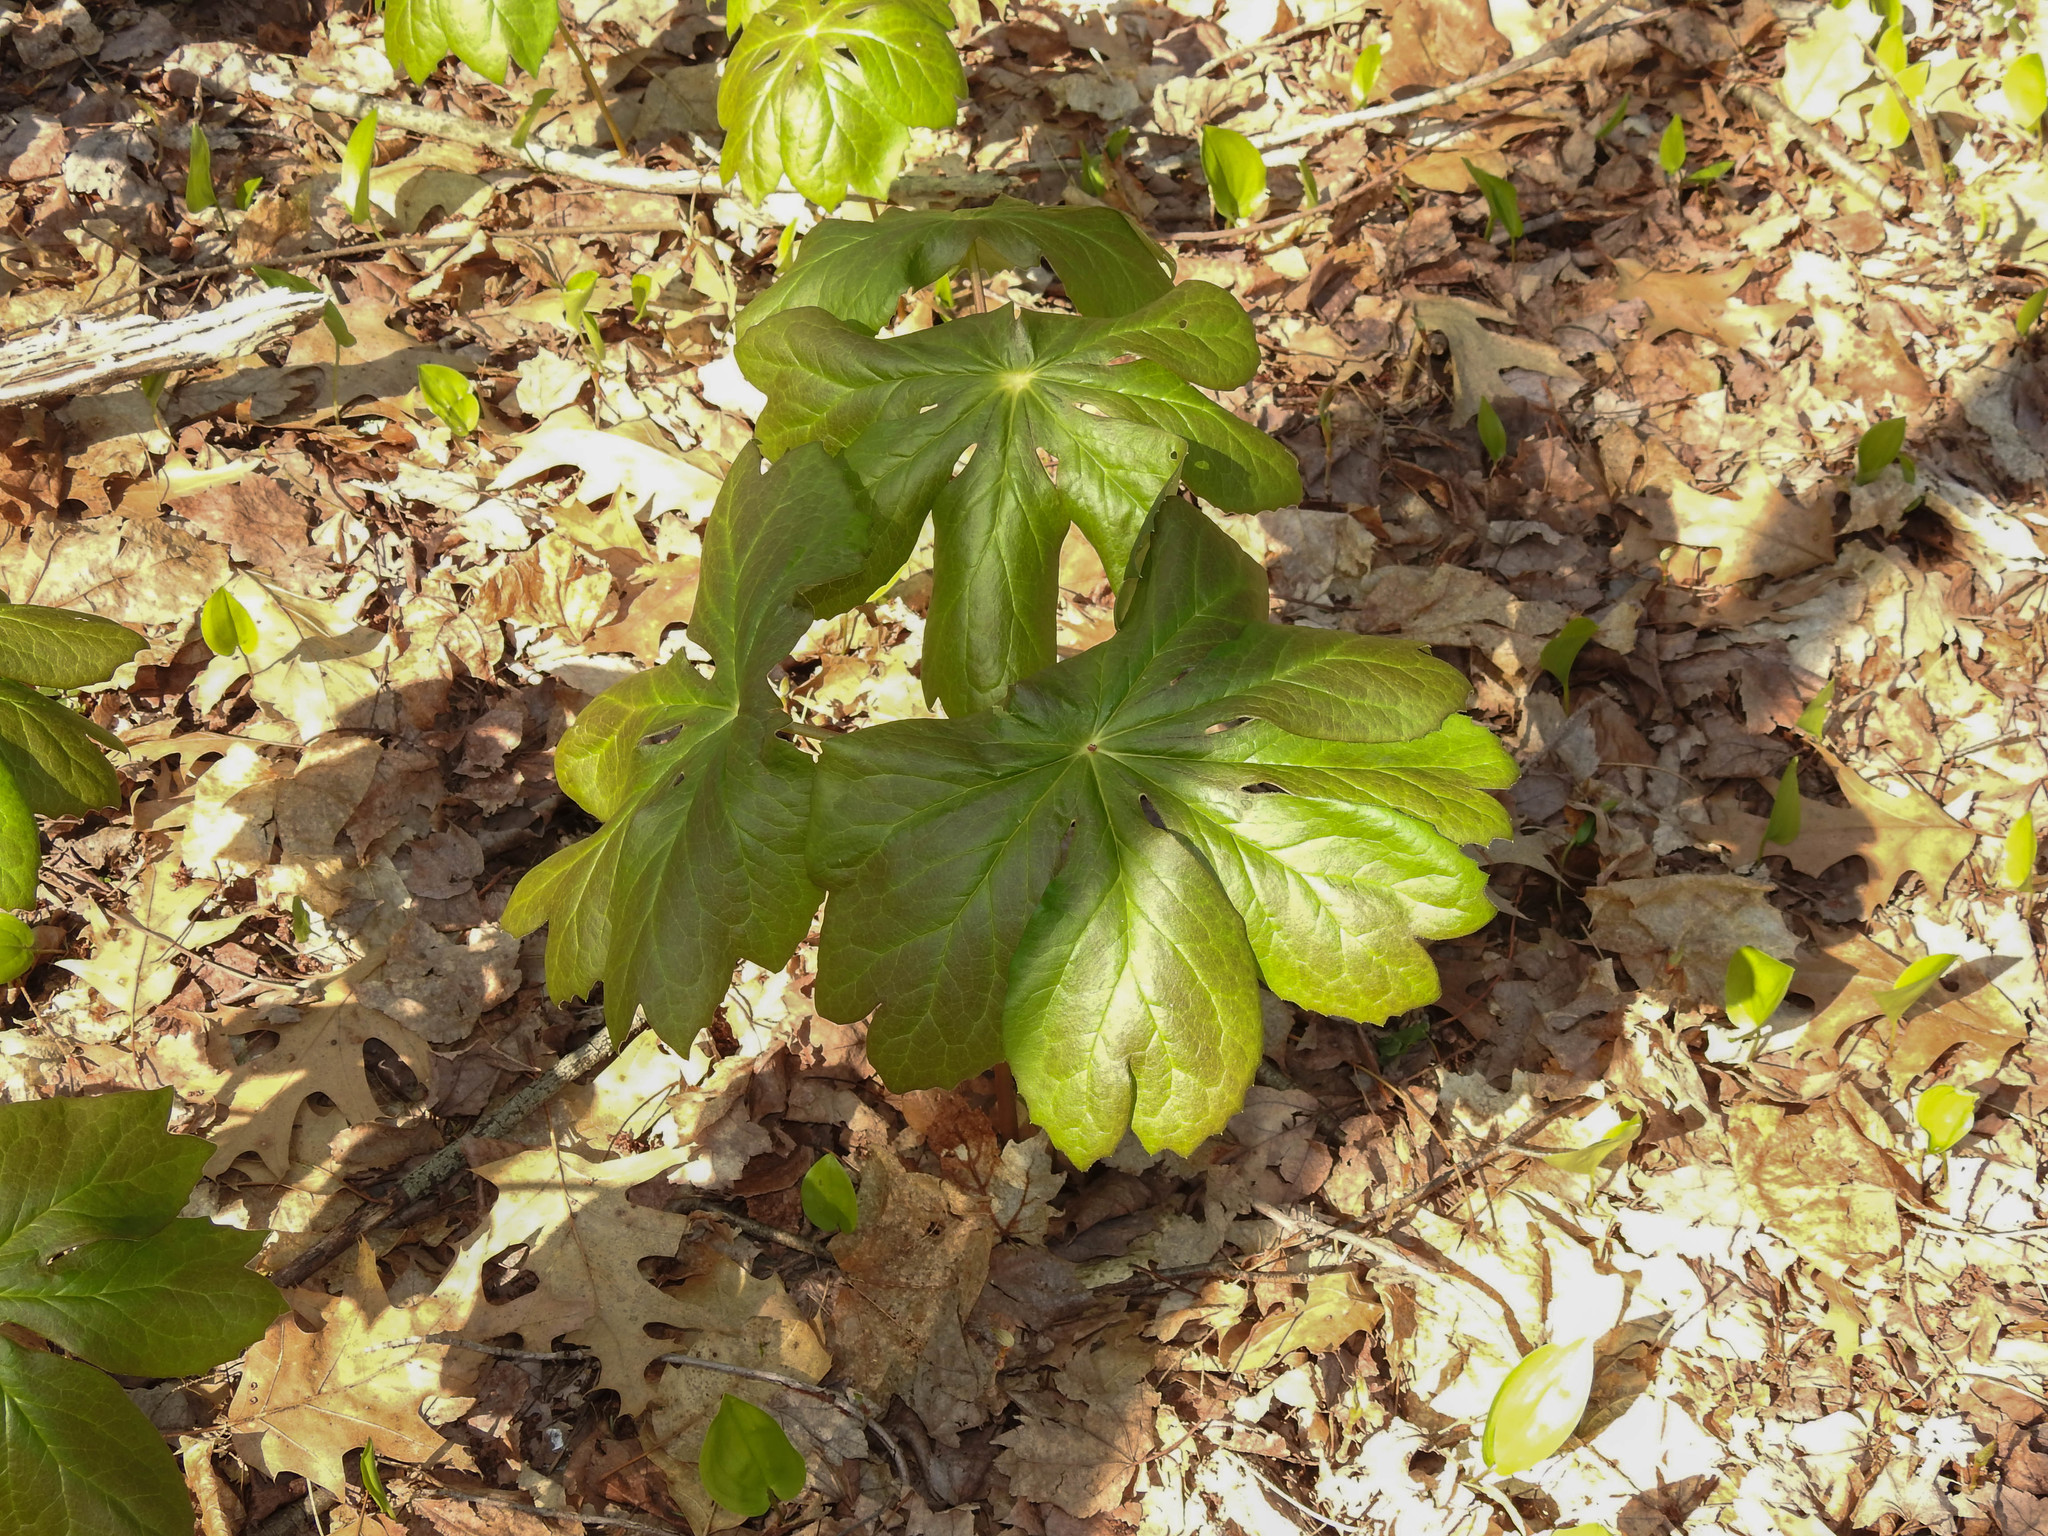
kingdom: Plantae
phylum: Tracheophyta
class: Magnoliopsida
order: Ranunculales
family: Berberidaceae
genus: Podophyllum
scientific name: Podophyllum peltatum
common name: Wild mandrake
